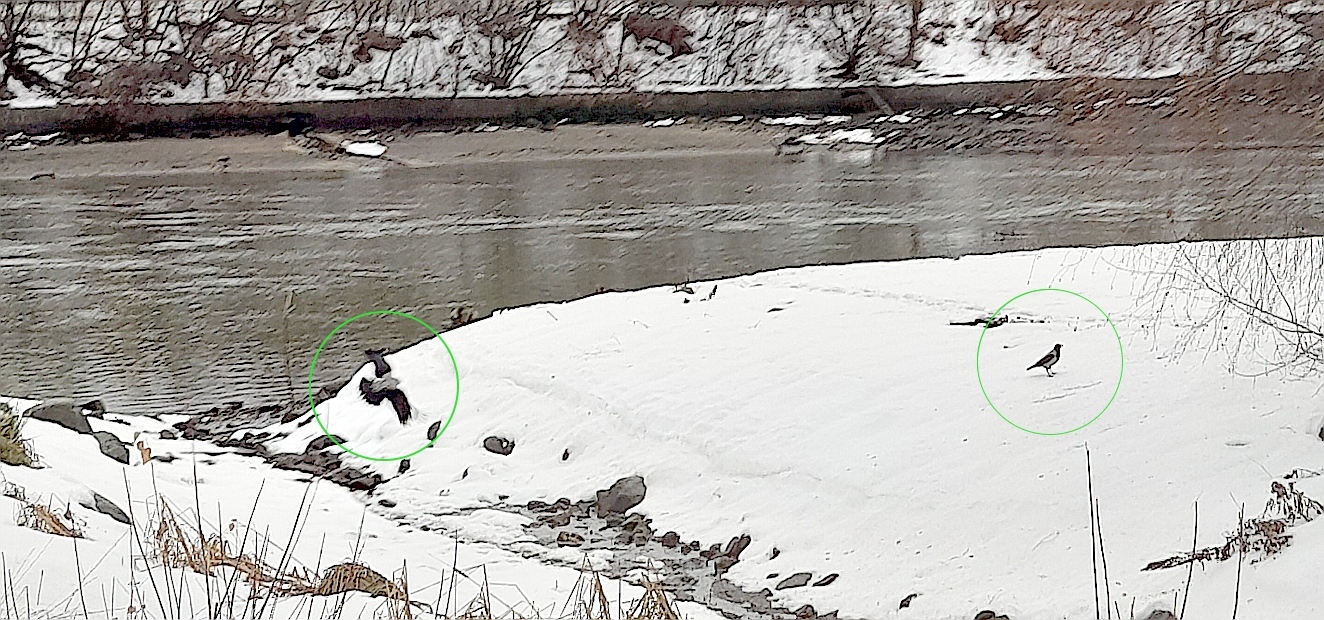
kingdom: Animalia
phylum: Chordata
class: Aves
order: Passeriformes
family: Corvidae
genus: Corvus
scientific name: Corvus cornix
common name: Hooded crow
